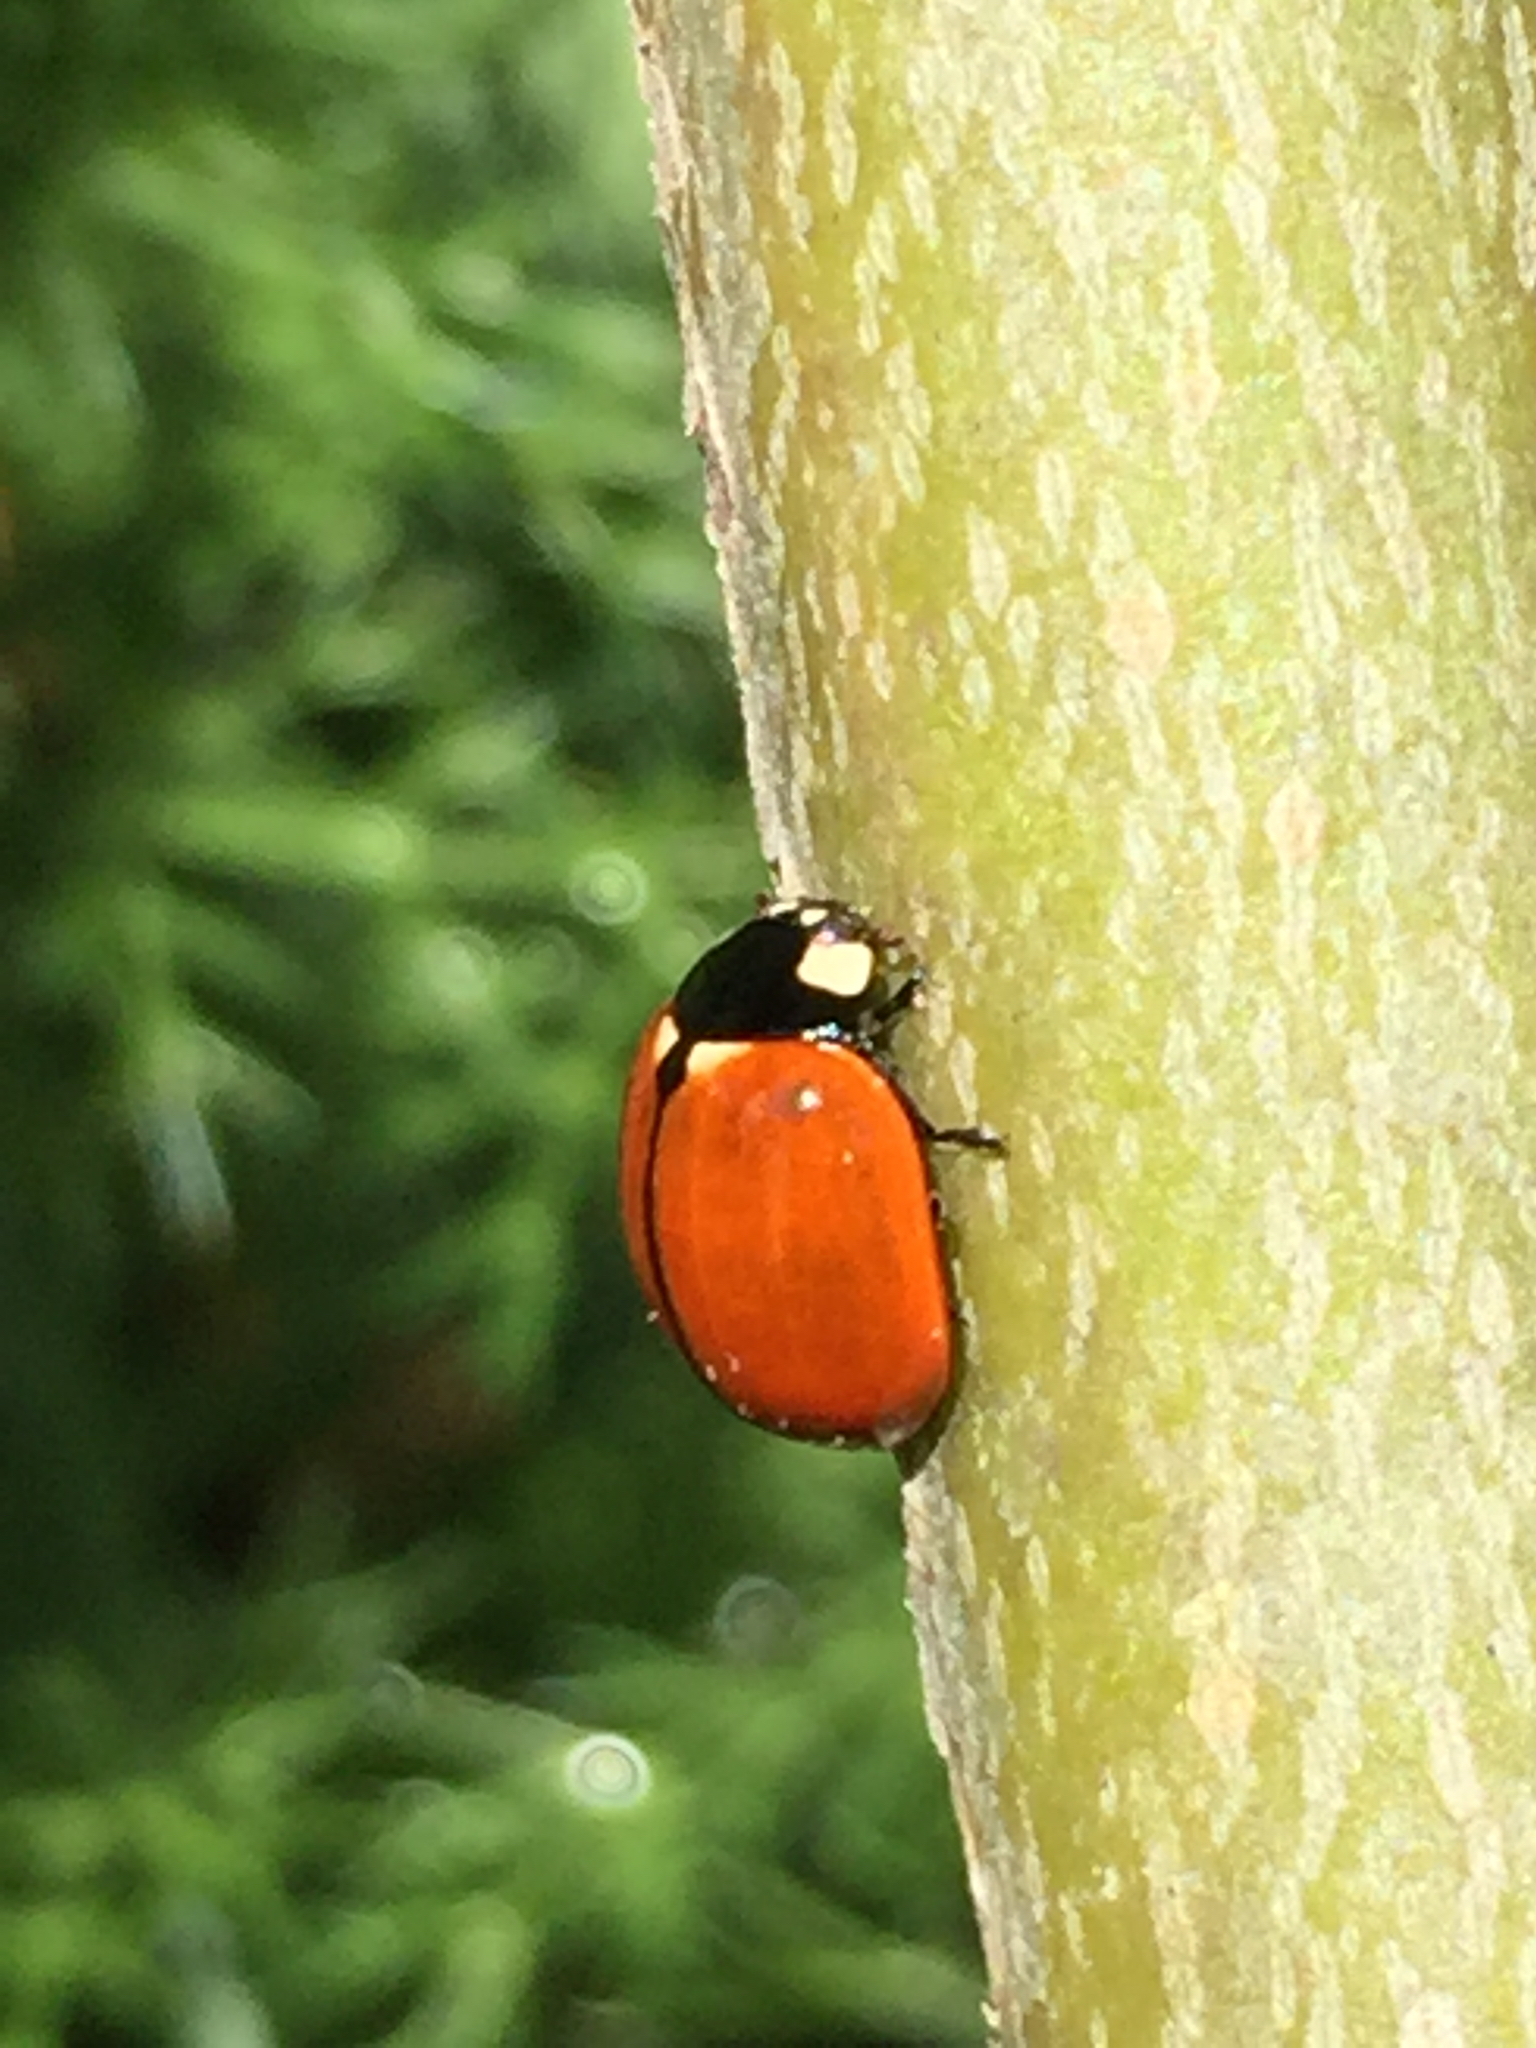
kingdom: Animalia
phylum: Arthropoda
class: Insecta
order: Coleoptera
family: Coccinellidae
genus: Coccinella
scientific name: Coccinella californica
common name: Lady beetle
